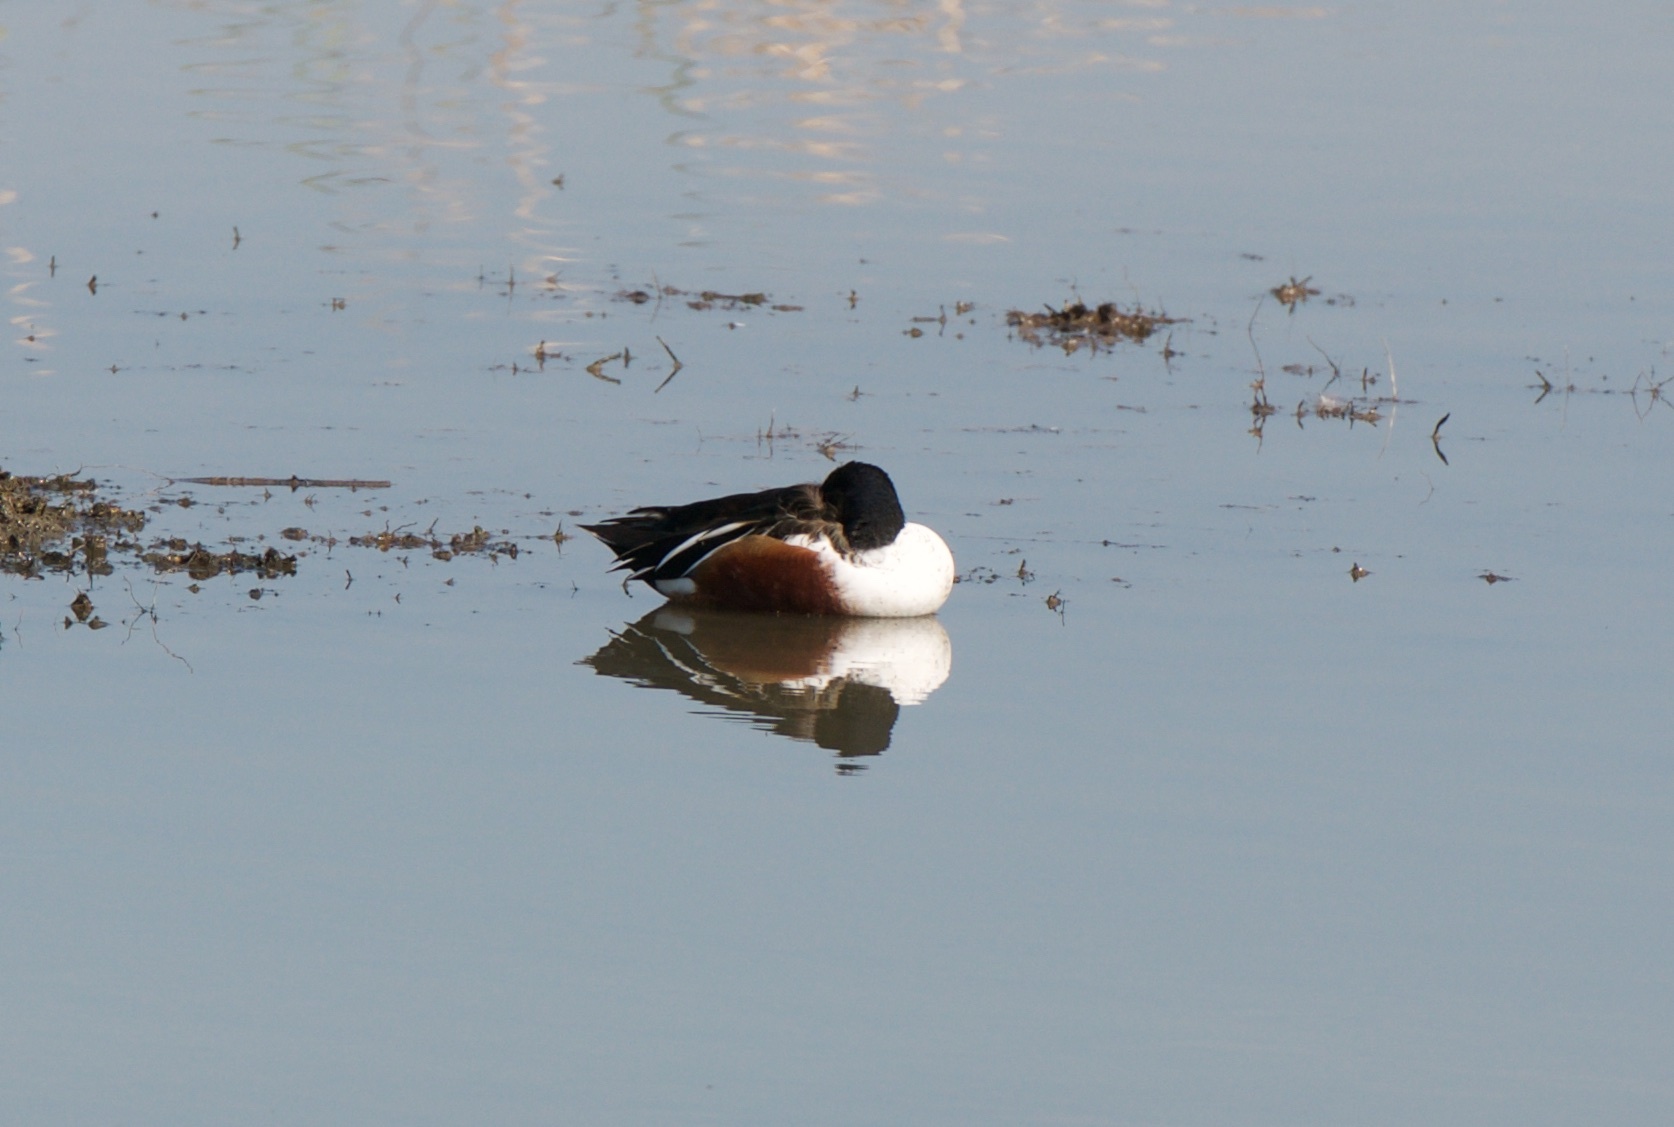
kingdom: Animalia
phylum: Chordata
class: Aves
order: Anseriformes
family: Anatidae
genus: Spatula
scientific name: Spatula clypeata
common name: Northern shoveler
